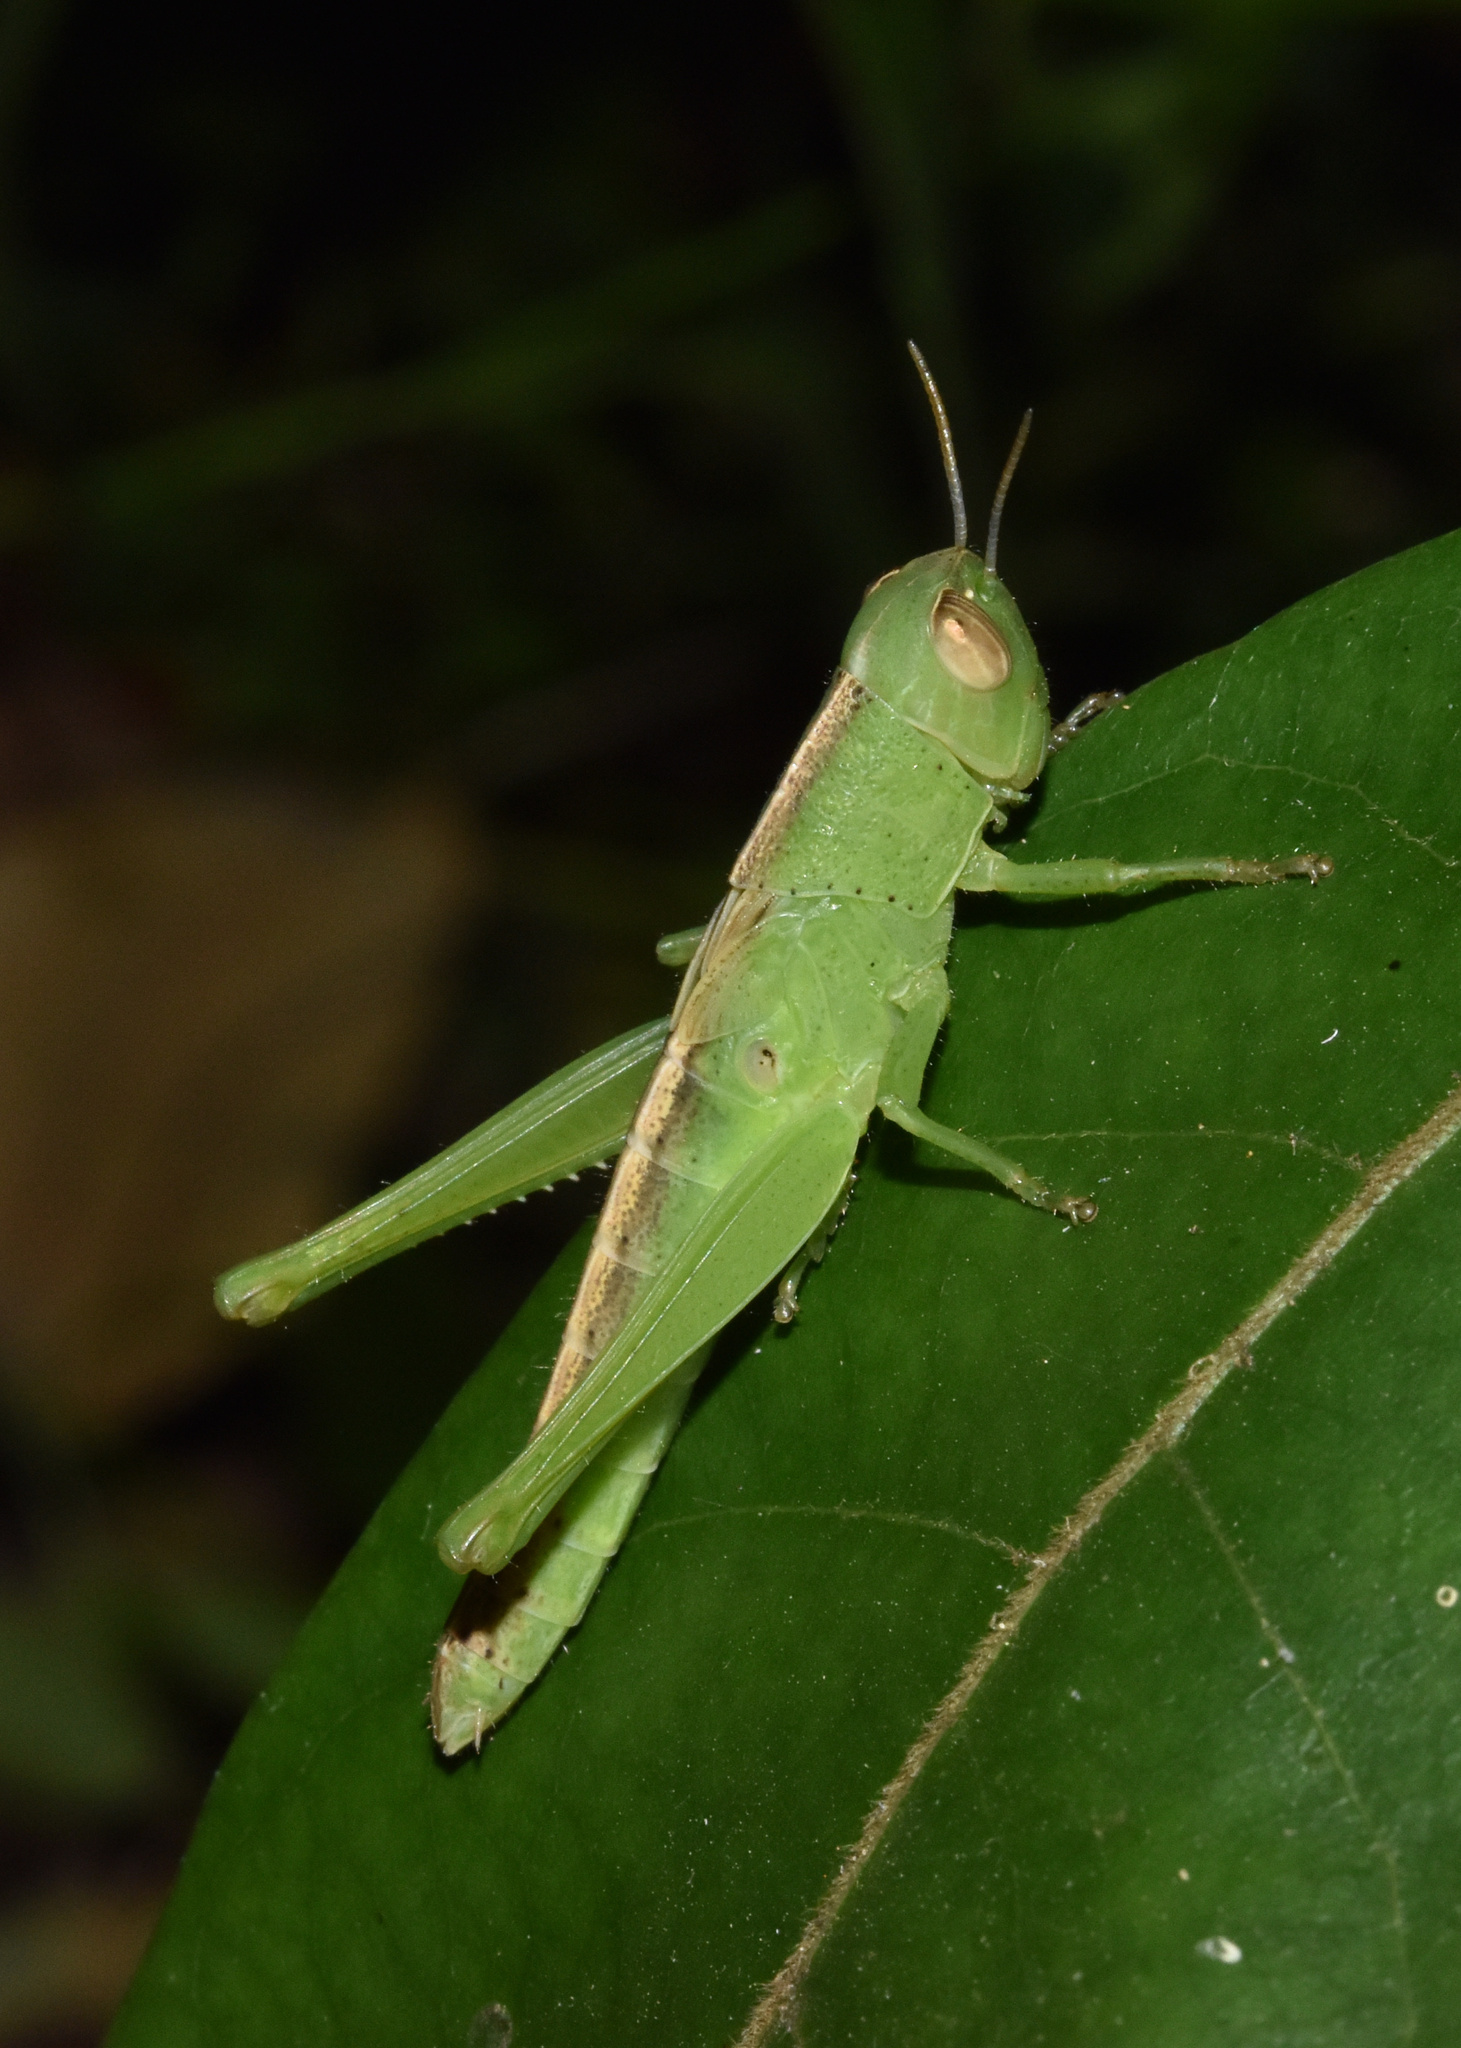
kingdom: Animalia
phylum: Arthropoda
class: Insecta
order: Orthoptera
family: Acrididae
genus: Oraistes
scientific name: Oraistes luridus
